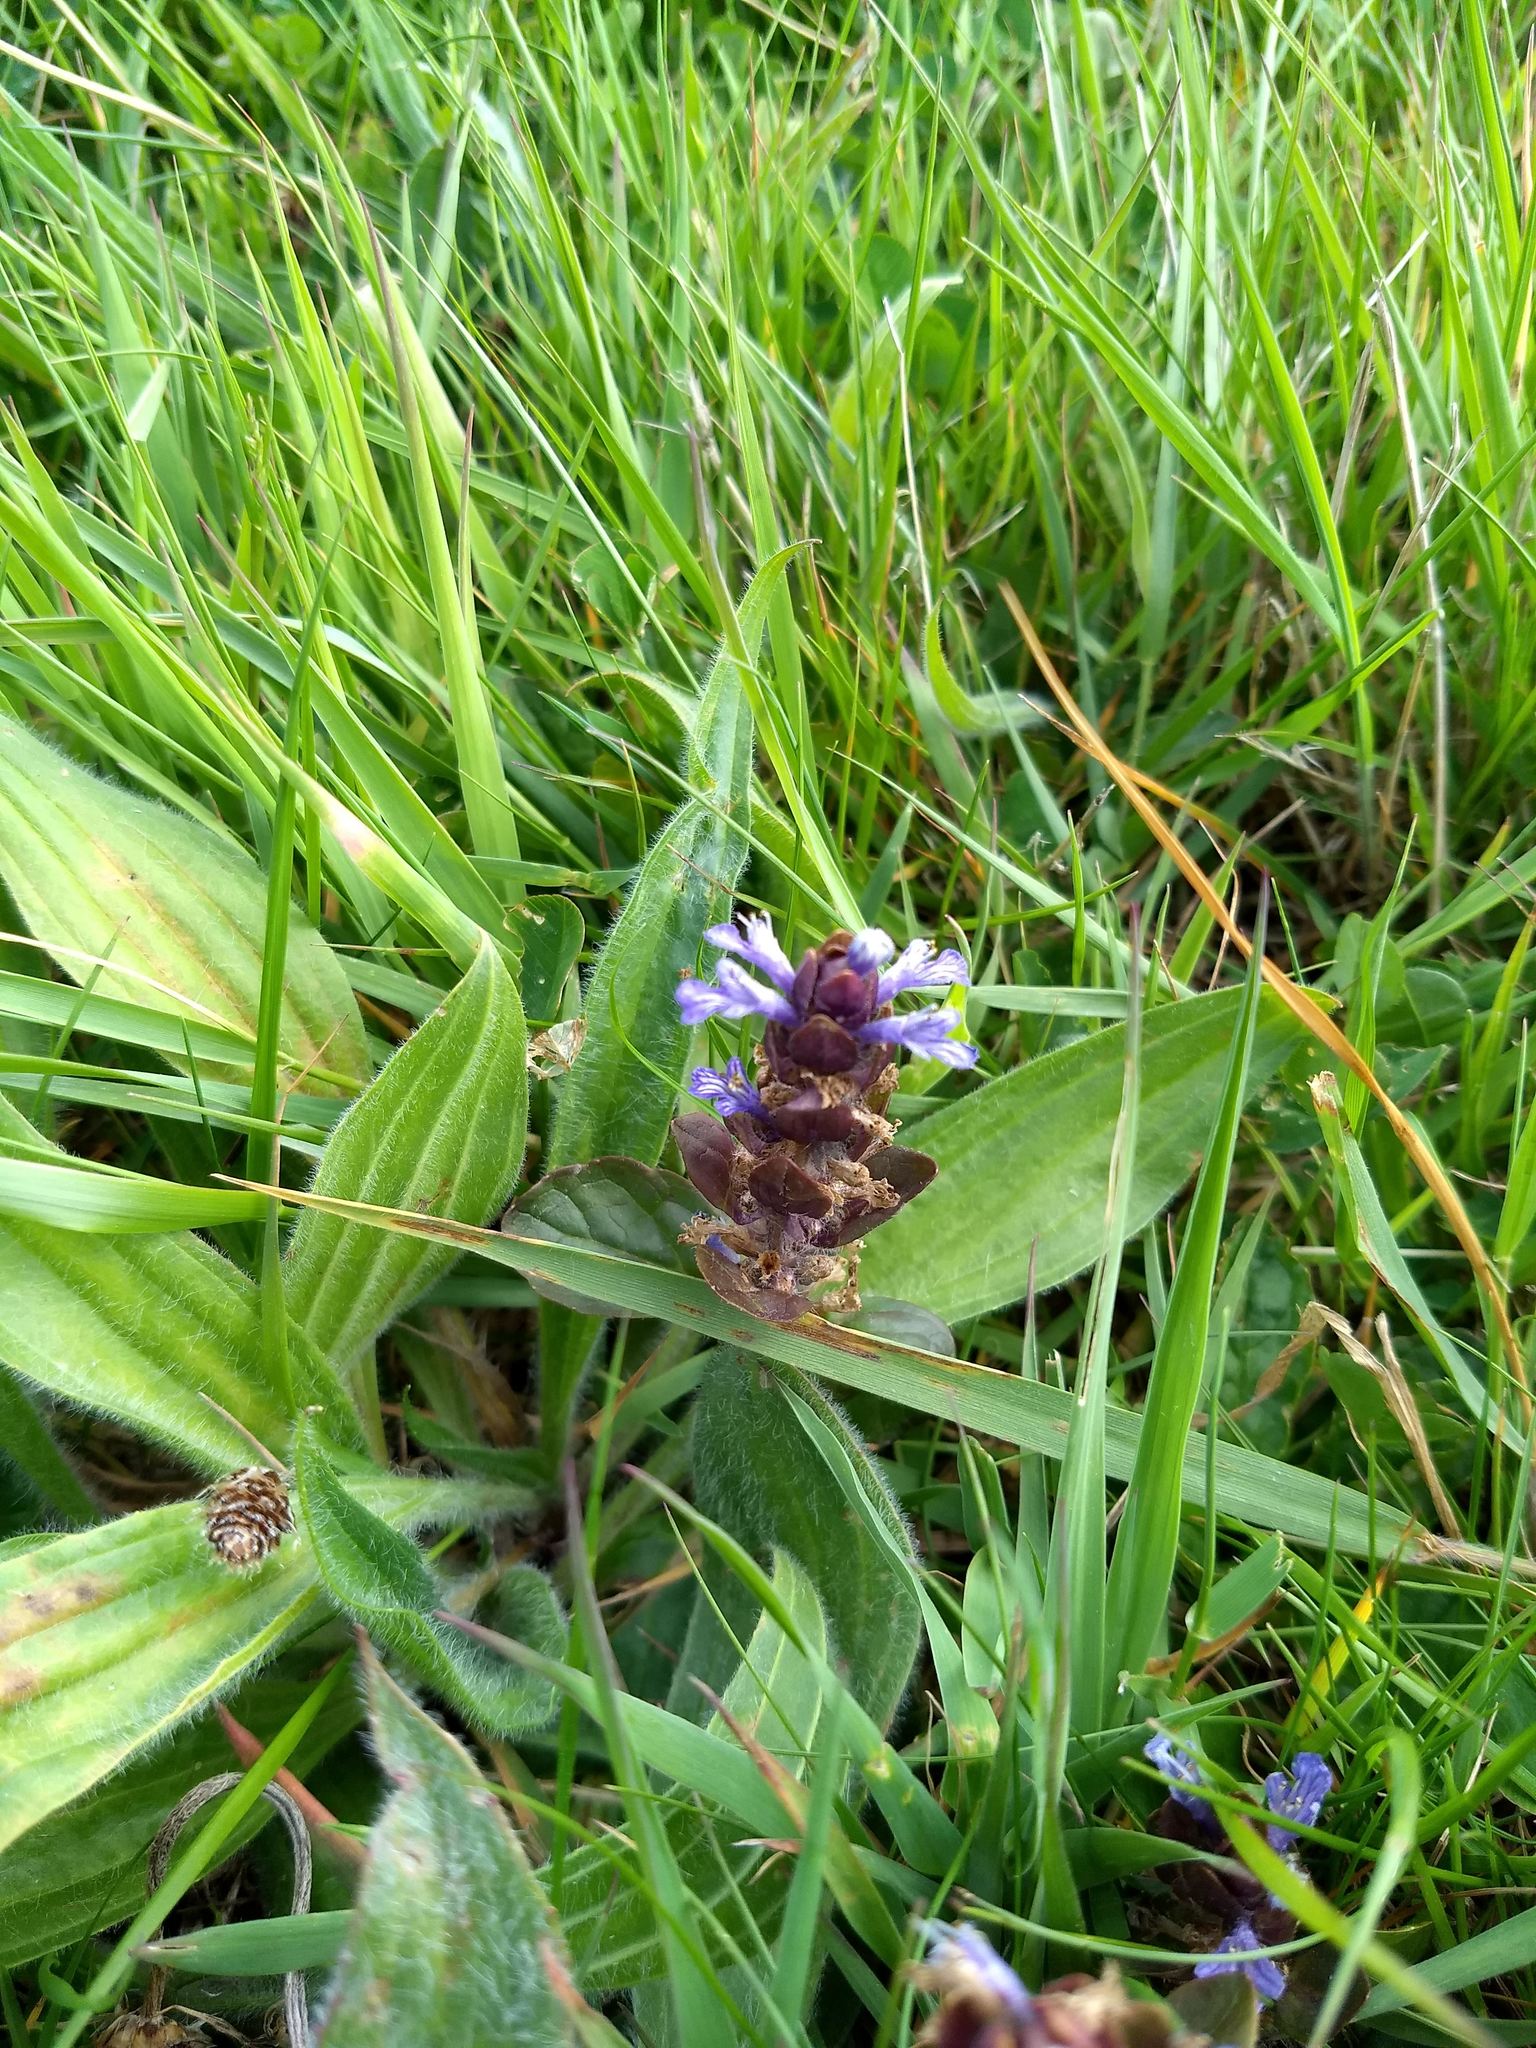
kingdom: Plantae
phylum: Tracheophyta
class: Magnoliopsida
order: Lamiales
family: Lamiaceae
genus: Ajuga
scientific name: Ajuga reptans
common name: Bugle
